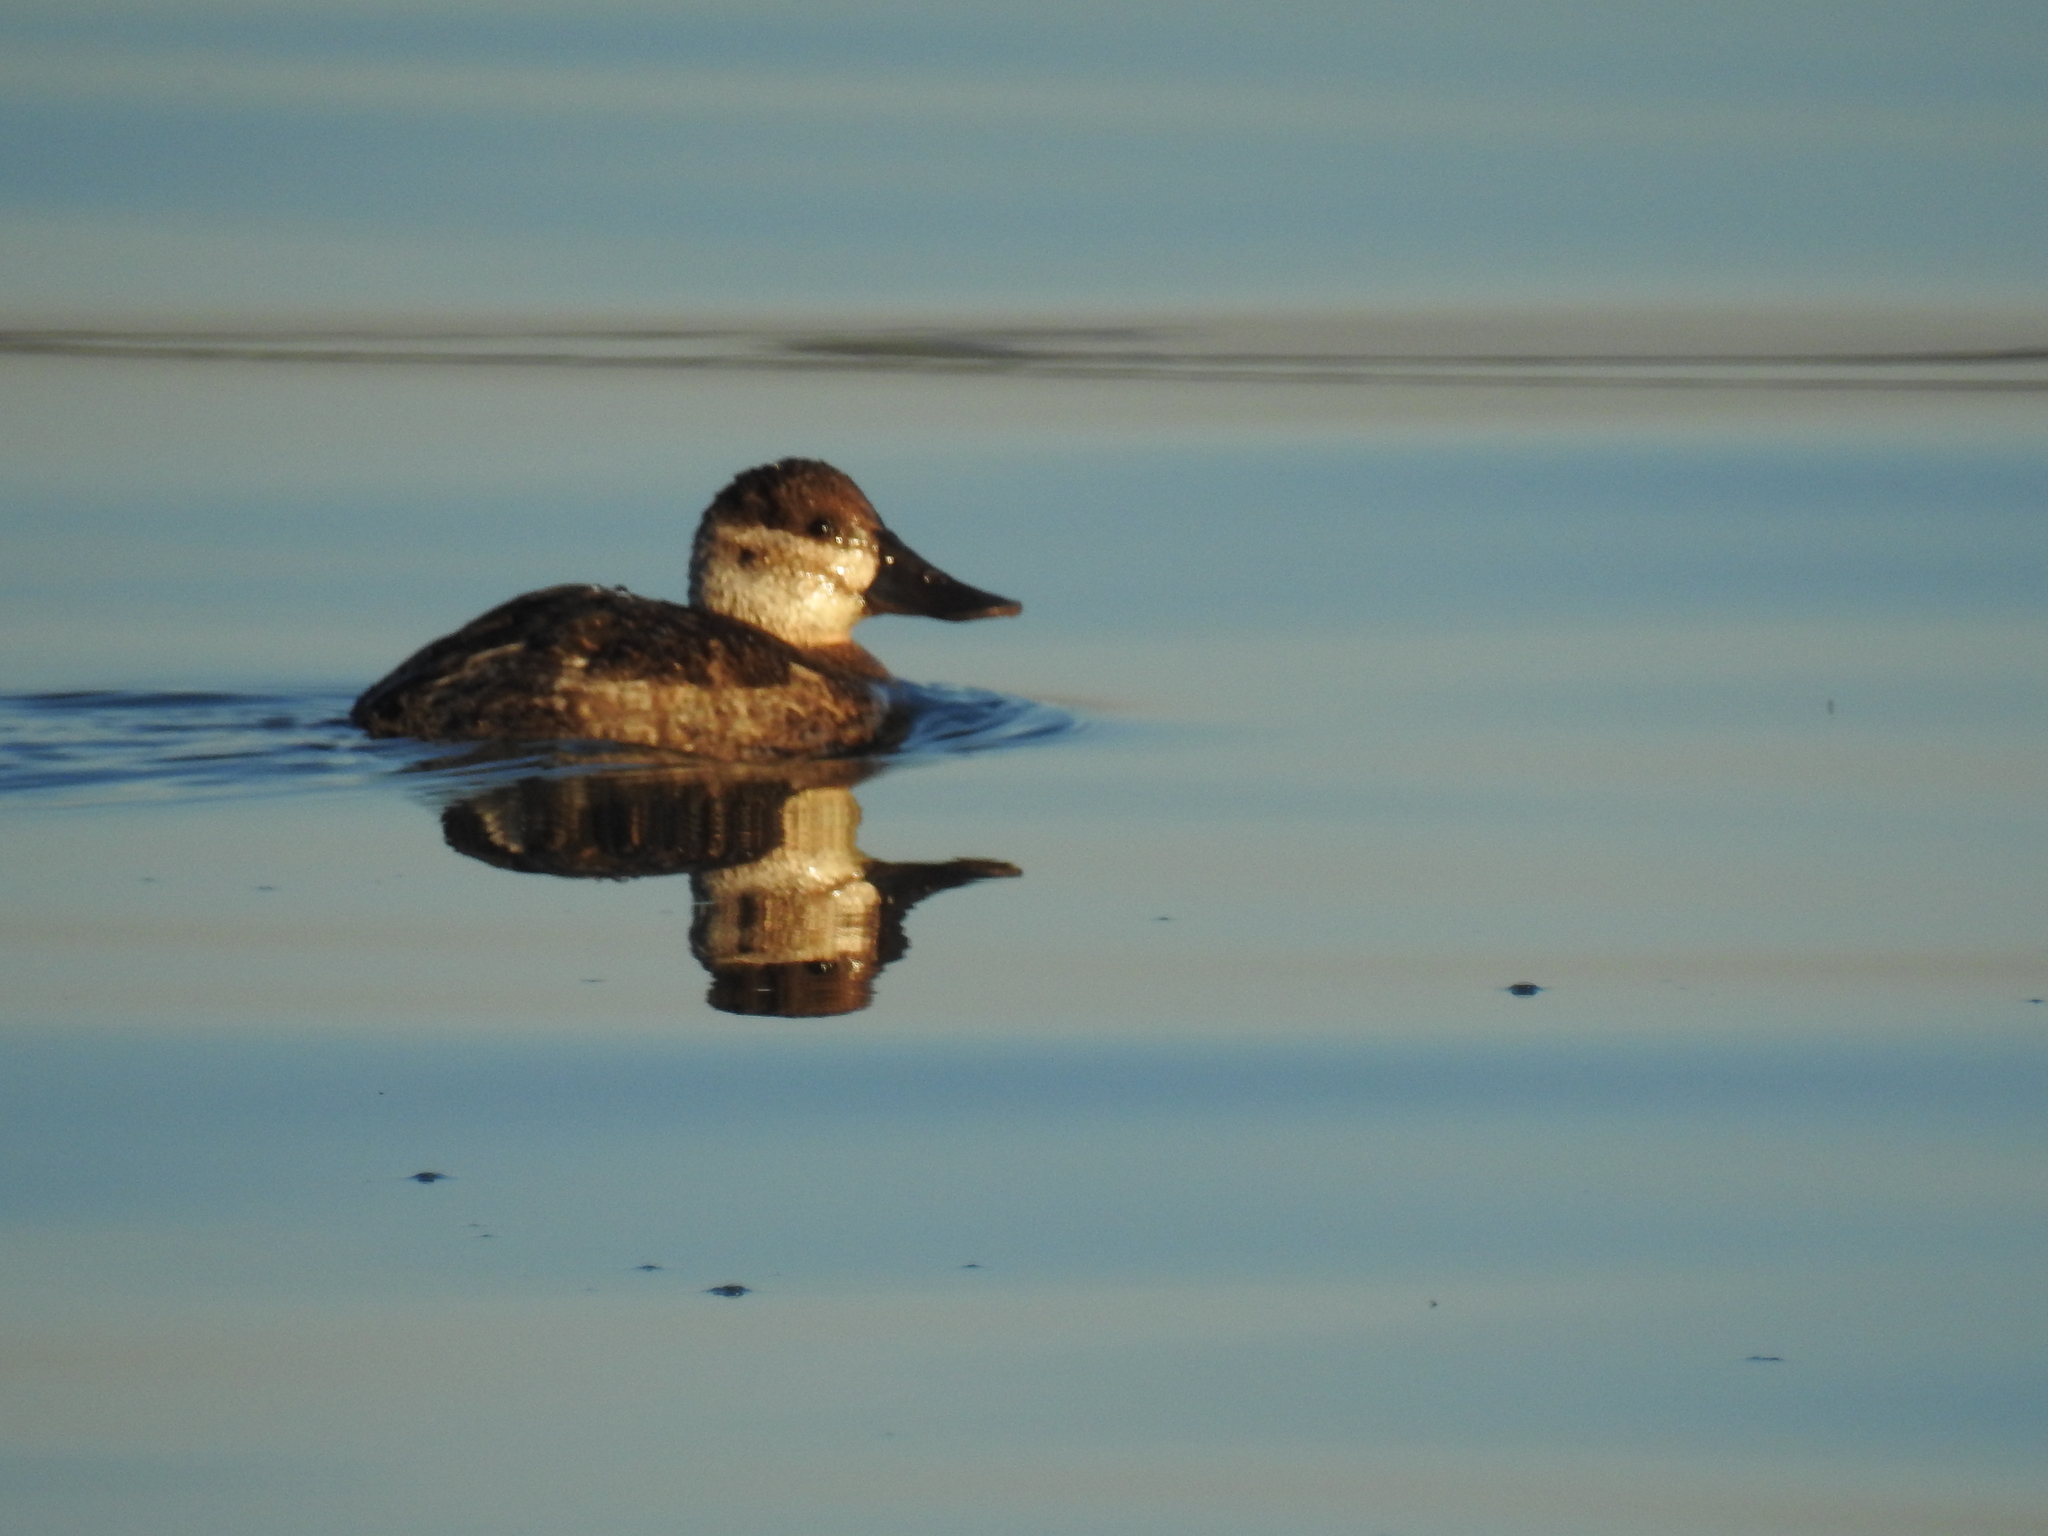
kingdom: Animalia
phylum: Chordata
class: Aves
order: Anseriformes
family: Anatidae
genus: Oxyura
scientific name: Oxyura jamaicensis
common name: Ruddy duck
